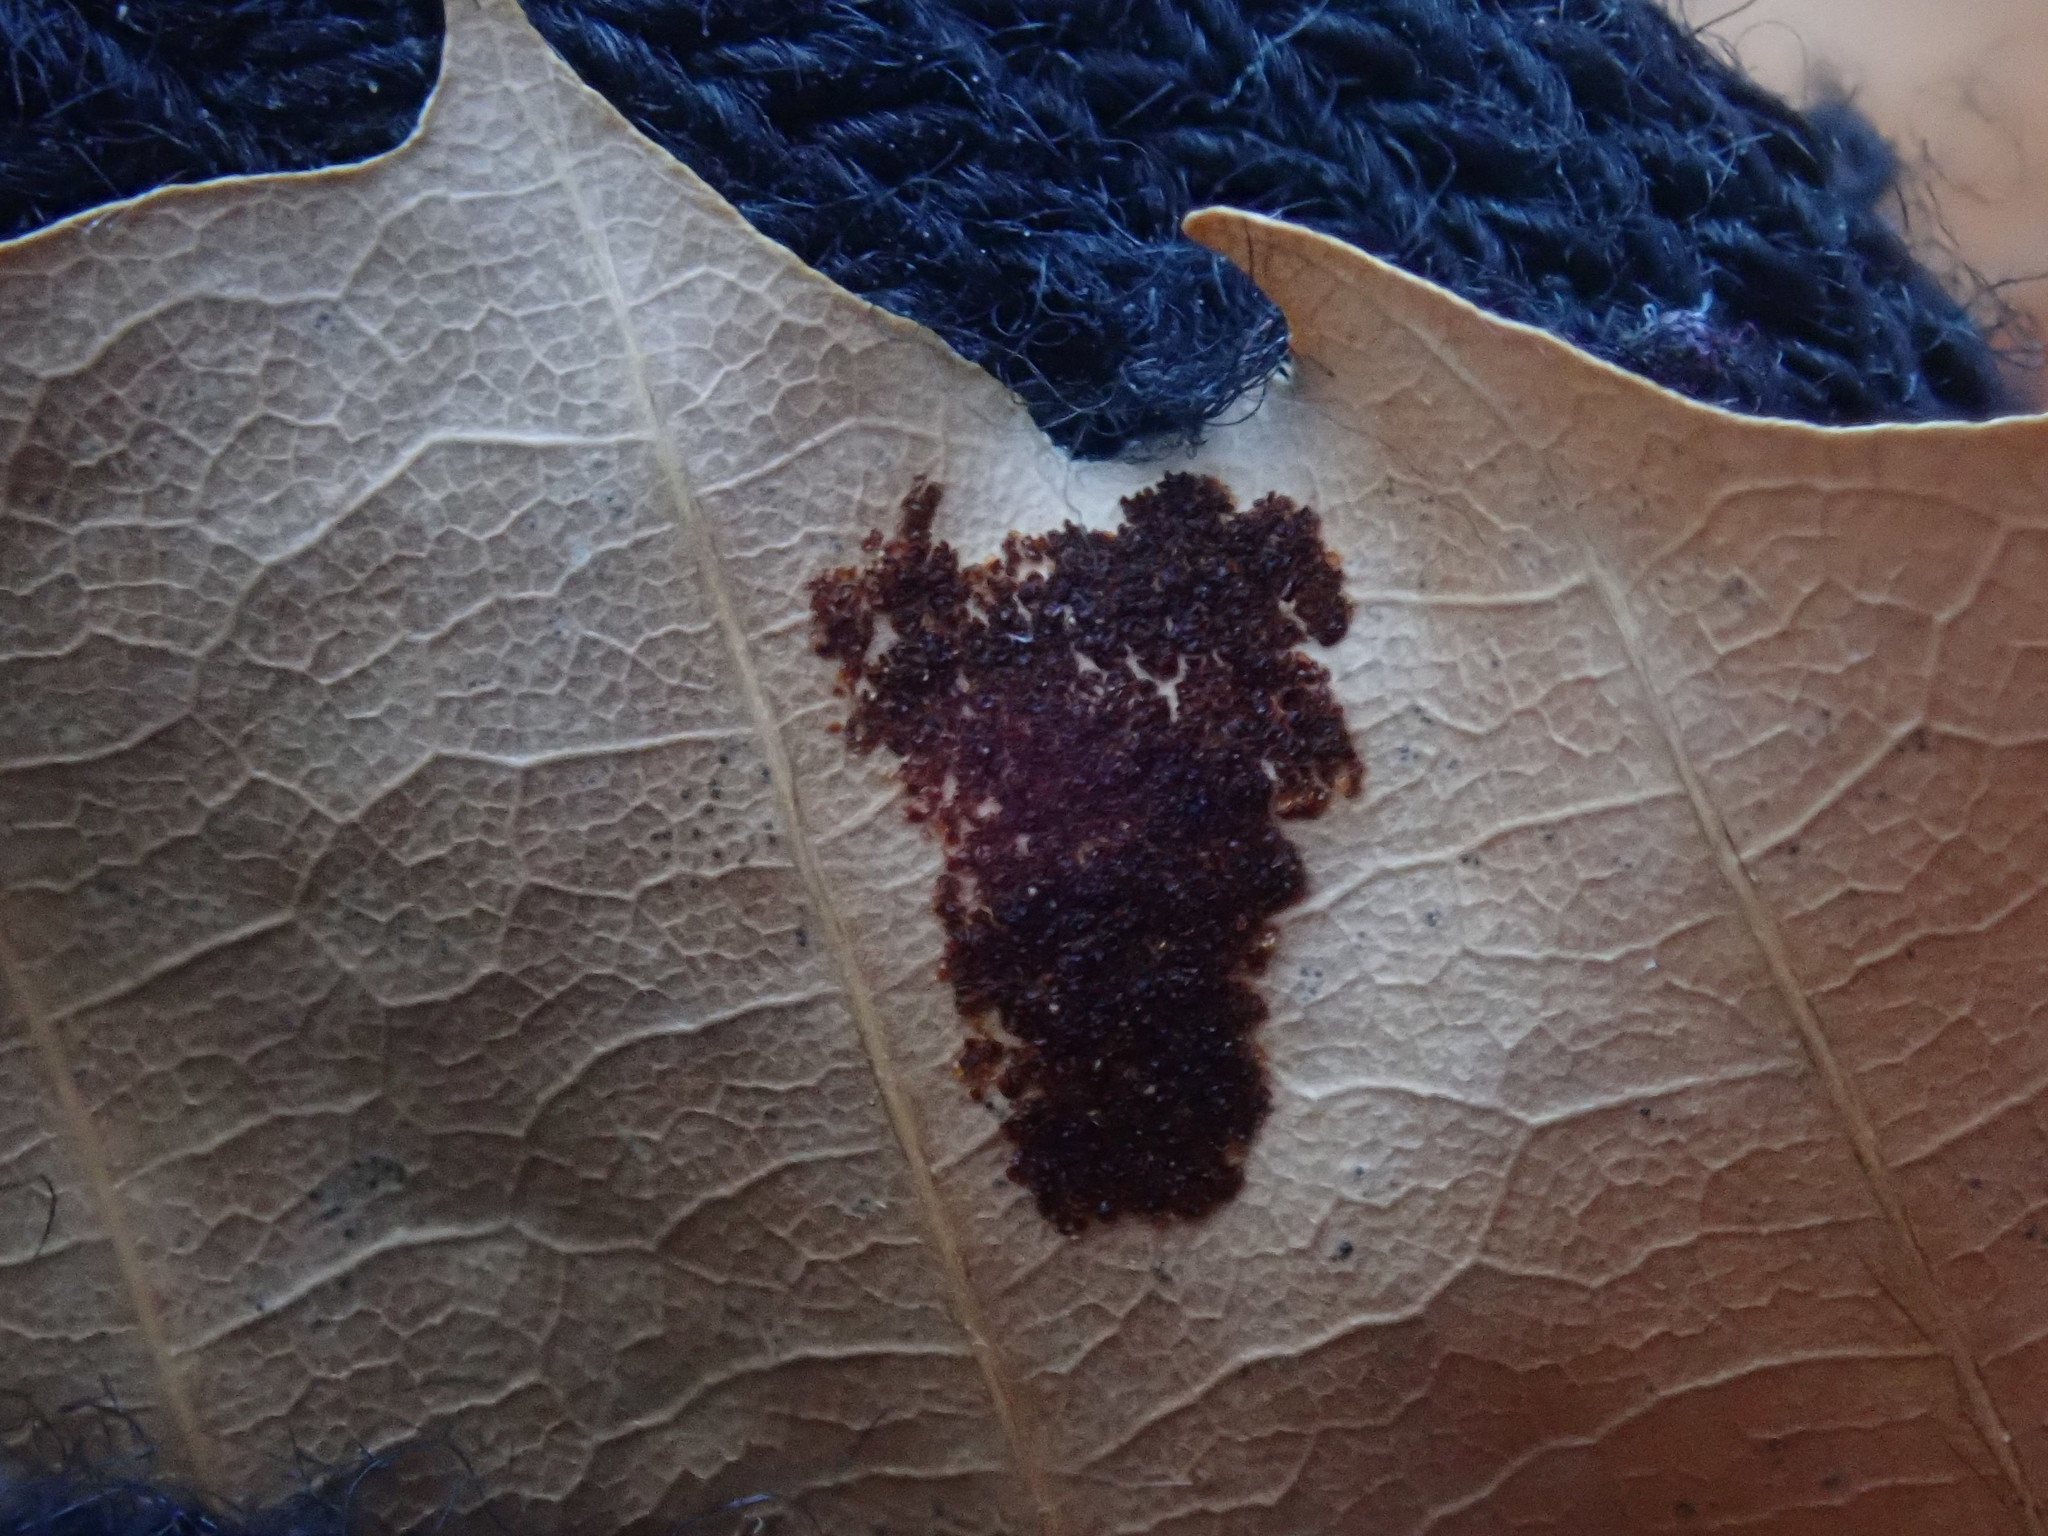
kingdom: Animalia
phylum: Arthropoda
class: Arachnida
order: Trombidiformes
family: Eriophyidae
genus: Acalitus
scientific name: Acalitus
